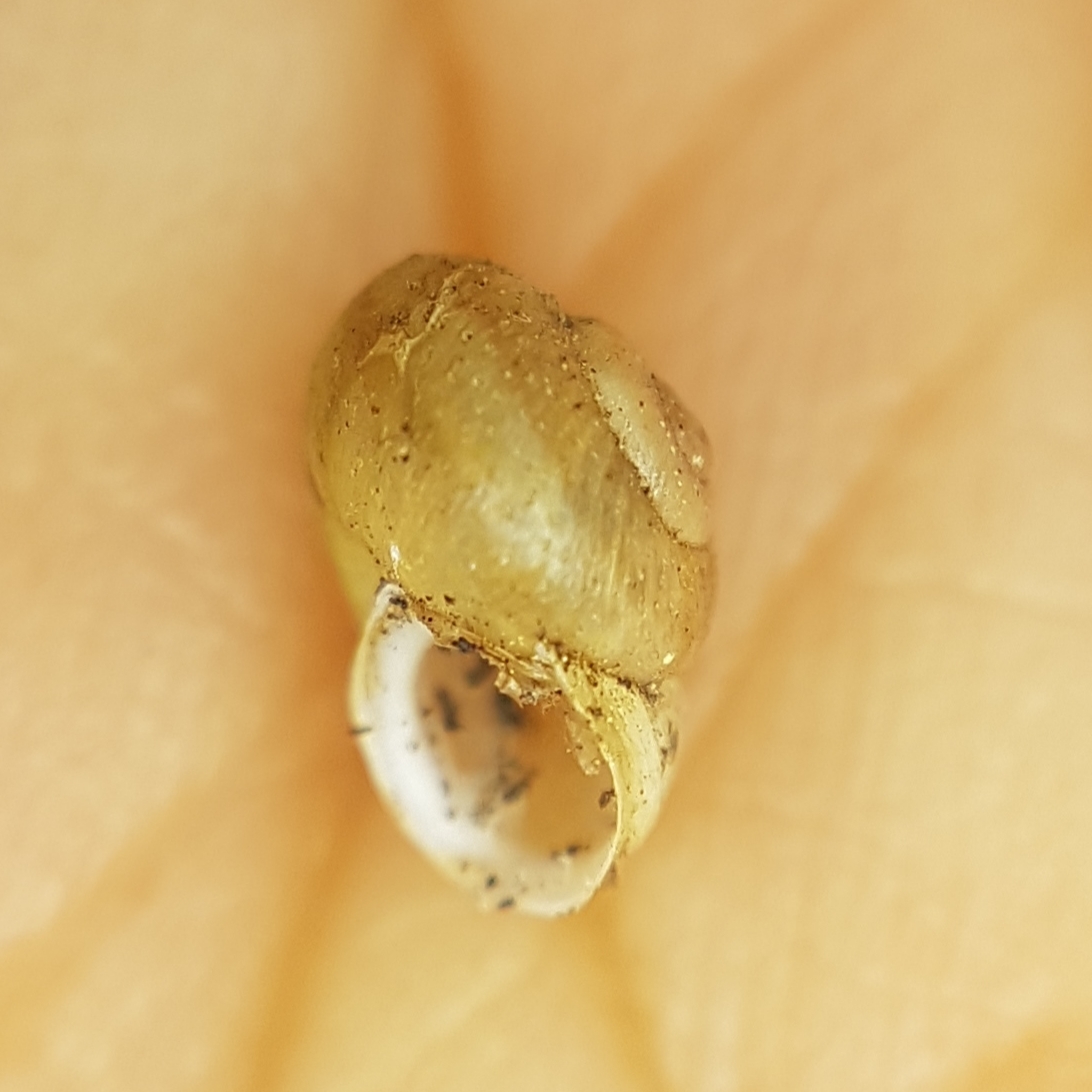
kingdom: Animalia
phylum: Mollusca
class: Gastropoda
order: Stylommatophora
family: Geomitridae
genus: Ponentina
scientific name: Ponentina ponentina
